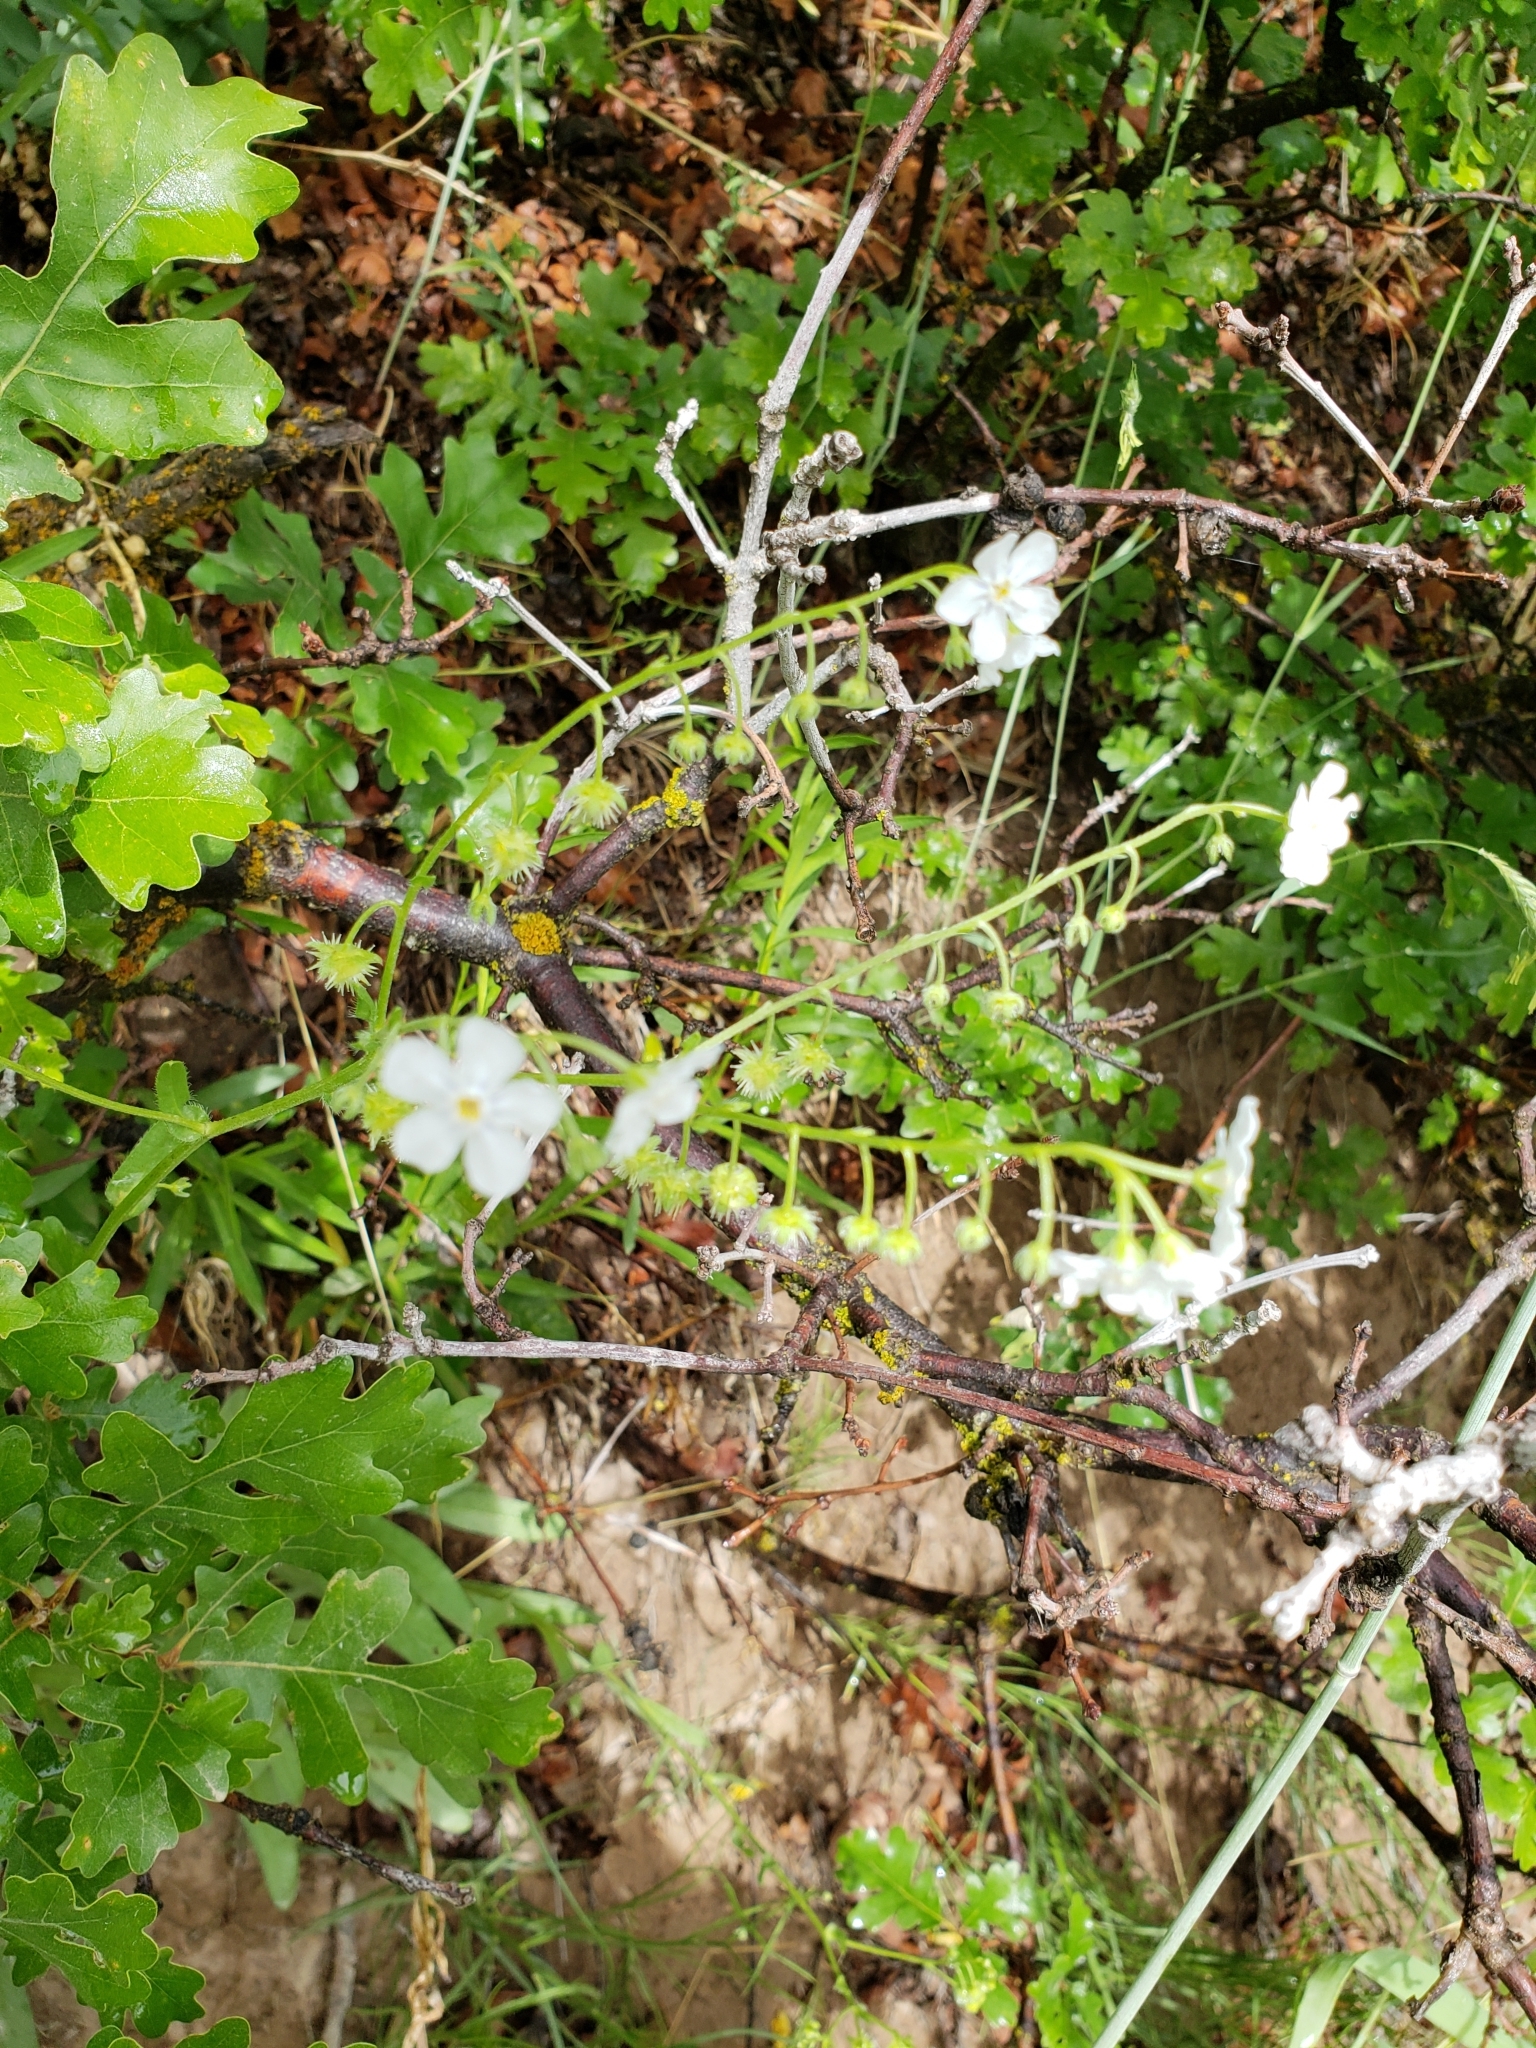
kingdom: Plantae
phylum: Tracheophyta
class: Magnoliopsida
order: Boraginales
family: Boraginaceae
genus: Hackelia
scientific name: Hackelia patens
